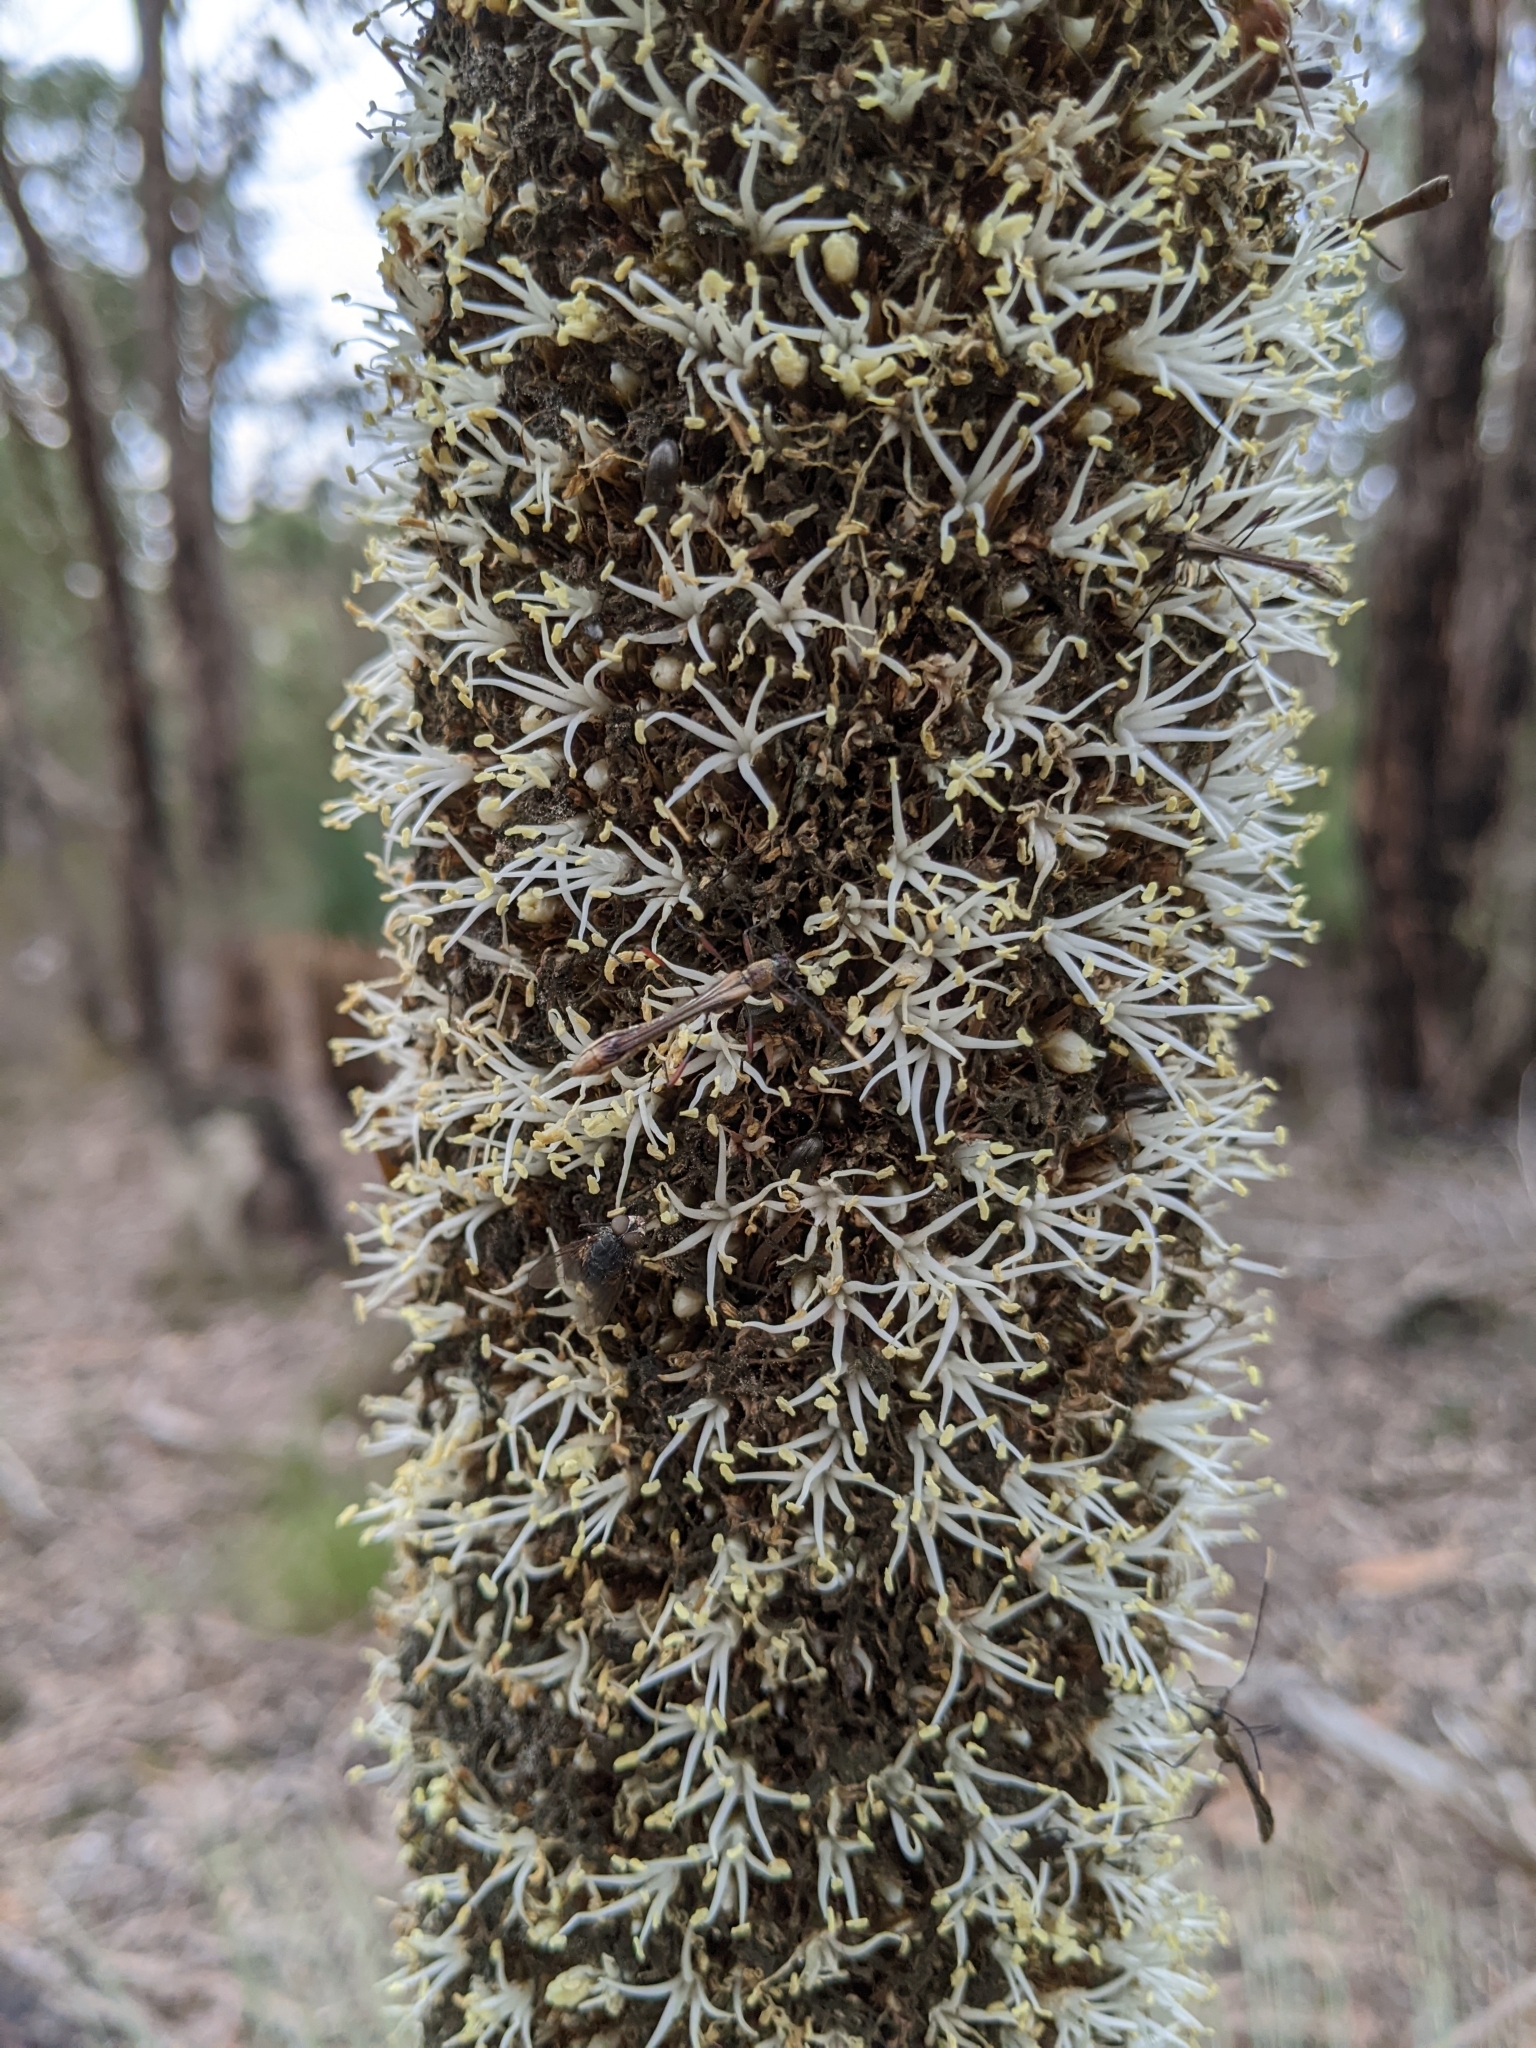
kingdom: Plantae
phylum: Tracheophyta
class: Liliopsida
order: Asparagales
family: Asphodelaceae
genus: Xanthorrhoea
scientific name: Xanthorrhoea australis
